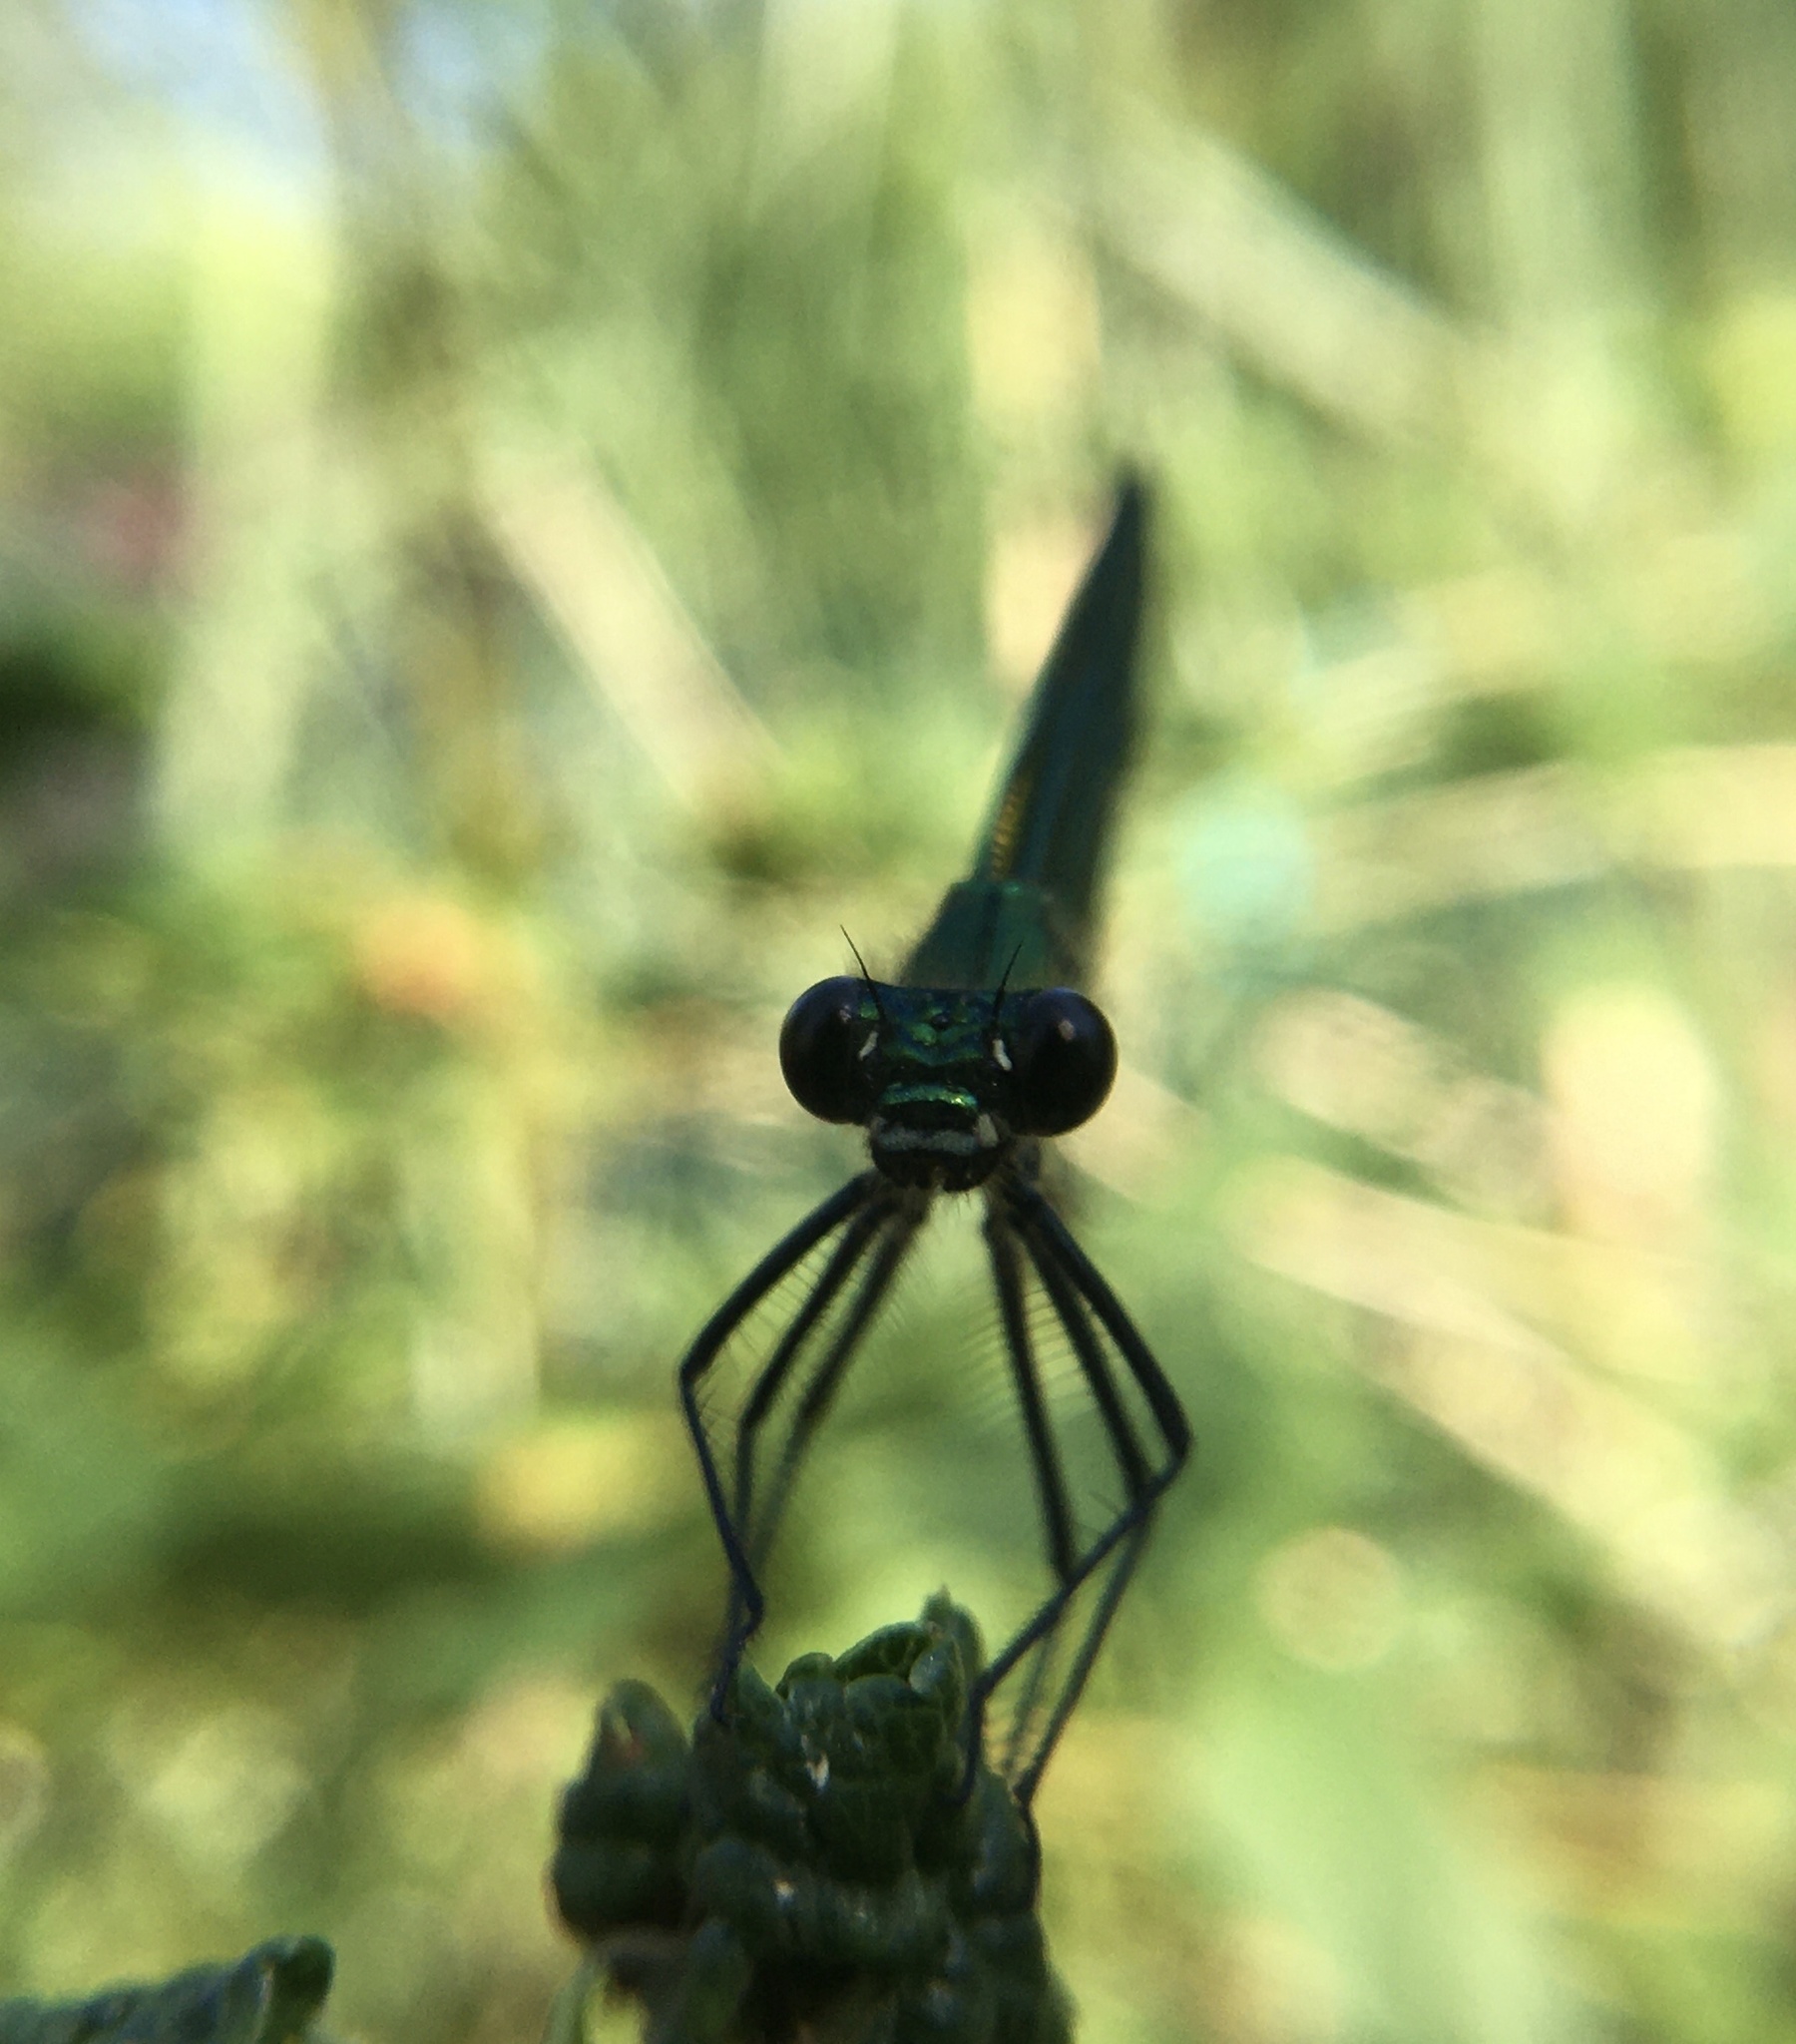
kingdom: Animalia
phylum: Arthropoda
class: Insecta
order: Odonata
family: Calopterygidae
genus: Calopteryx
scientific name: Calopteryx virgo
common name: Beautiful demoiselle
